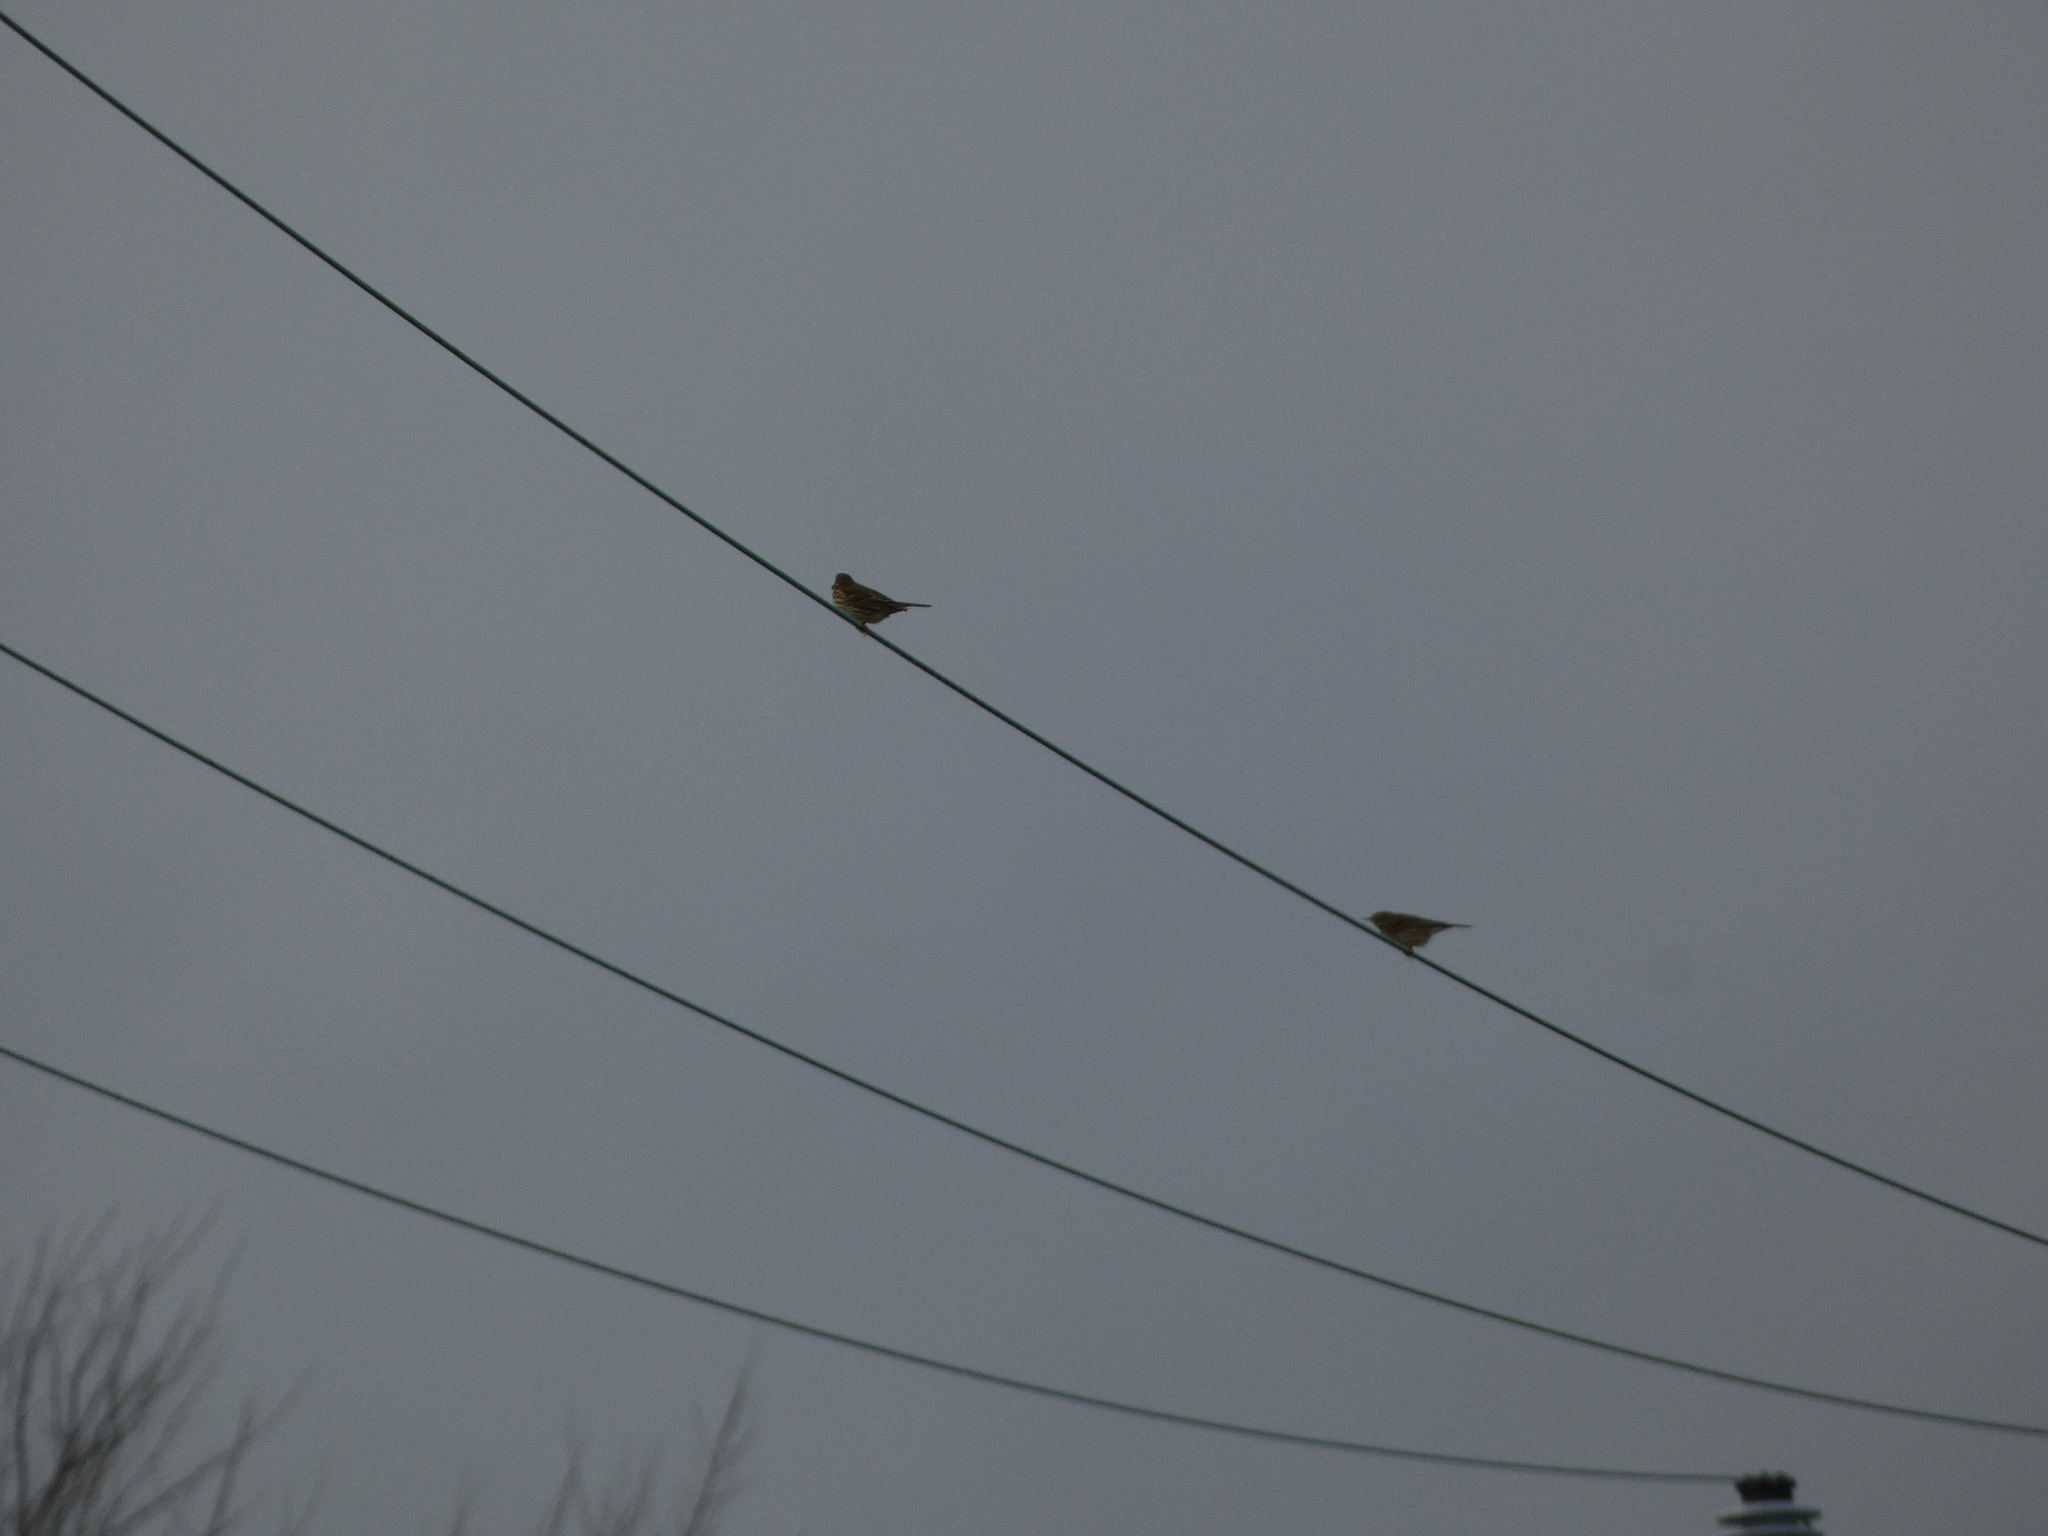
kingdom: Animalia
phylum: Chordata
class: Aves
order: Passeriformes
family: Motacillidae
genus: Anthus
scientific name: Anthus pratensis
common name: Meadow pipit
